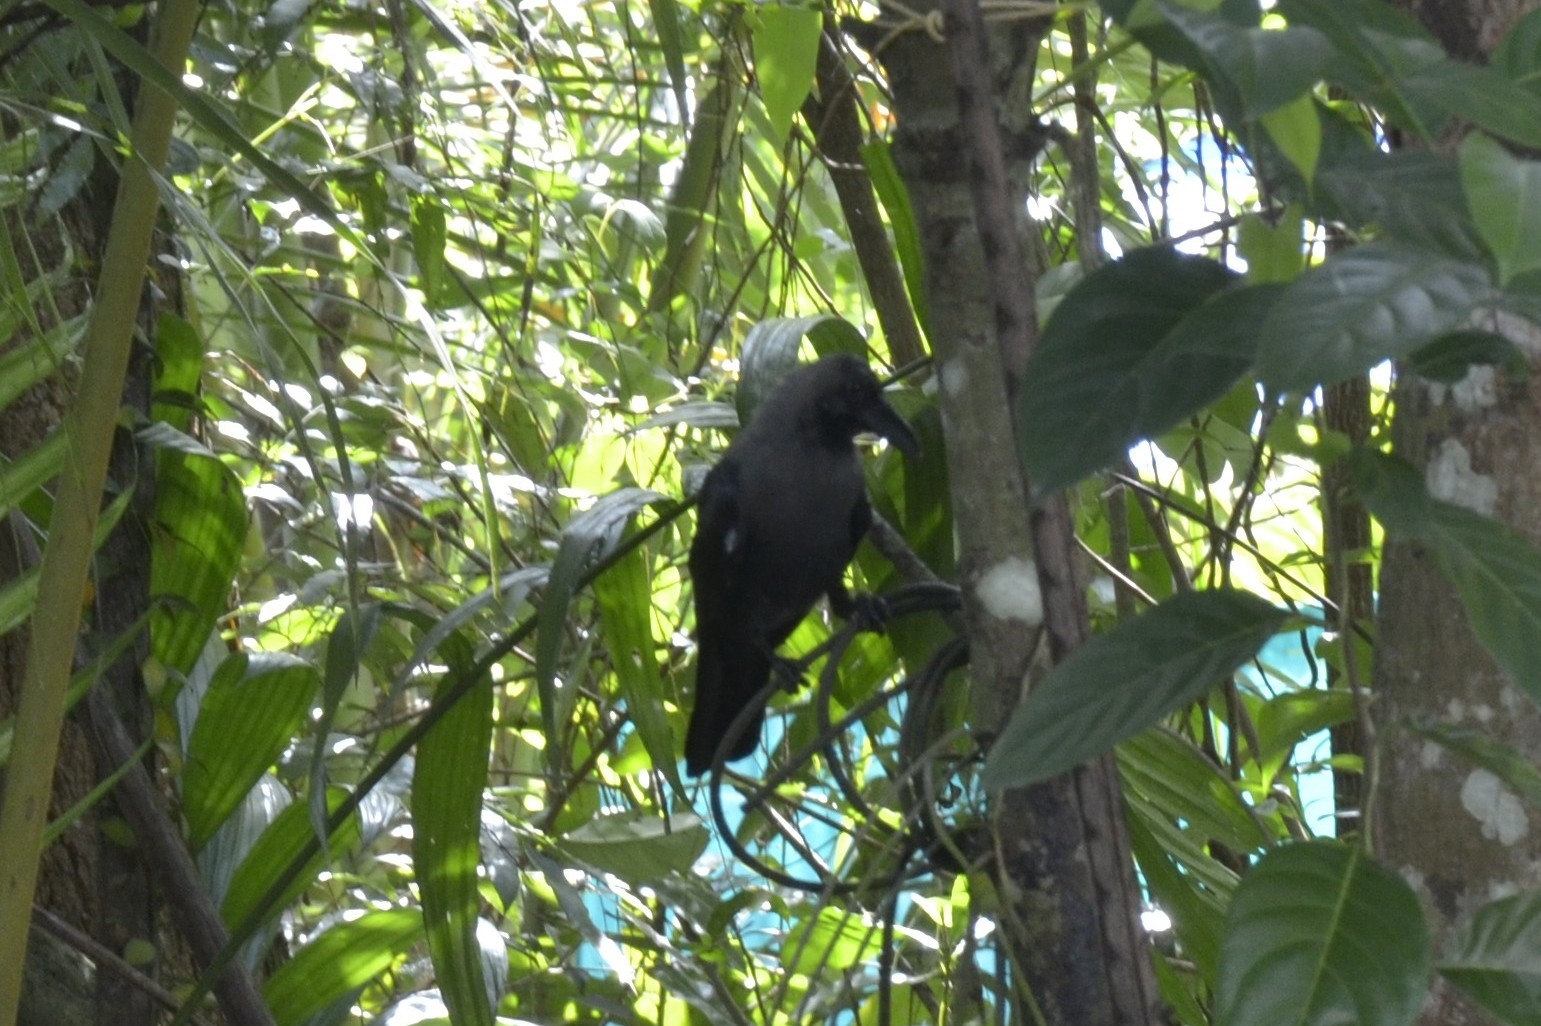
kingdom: Animalia
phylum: Chordata
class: Aves
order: Passeriformes
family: Corvidae
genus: Corvus
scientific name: Corvus splendens
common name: House crow
